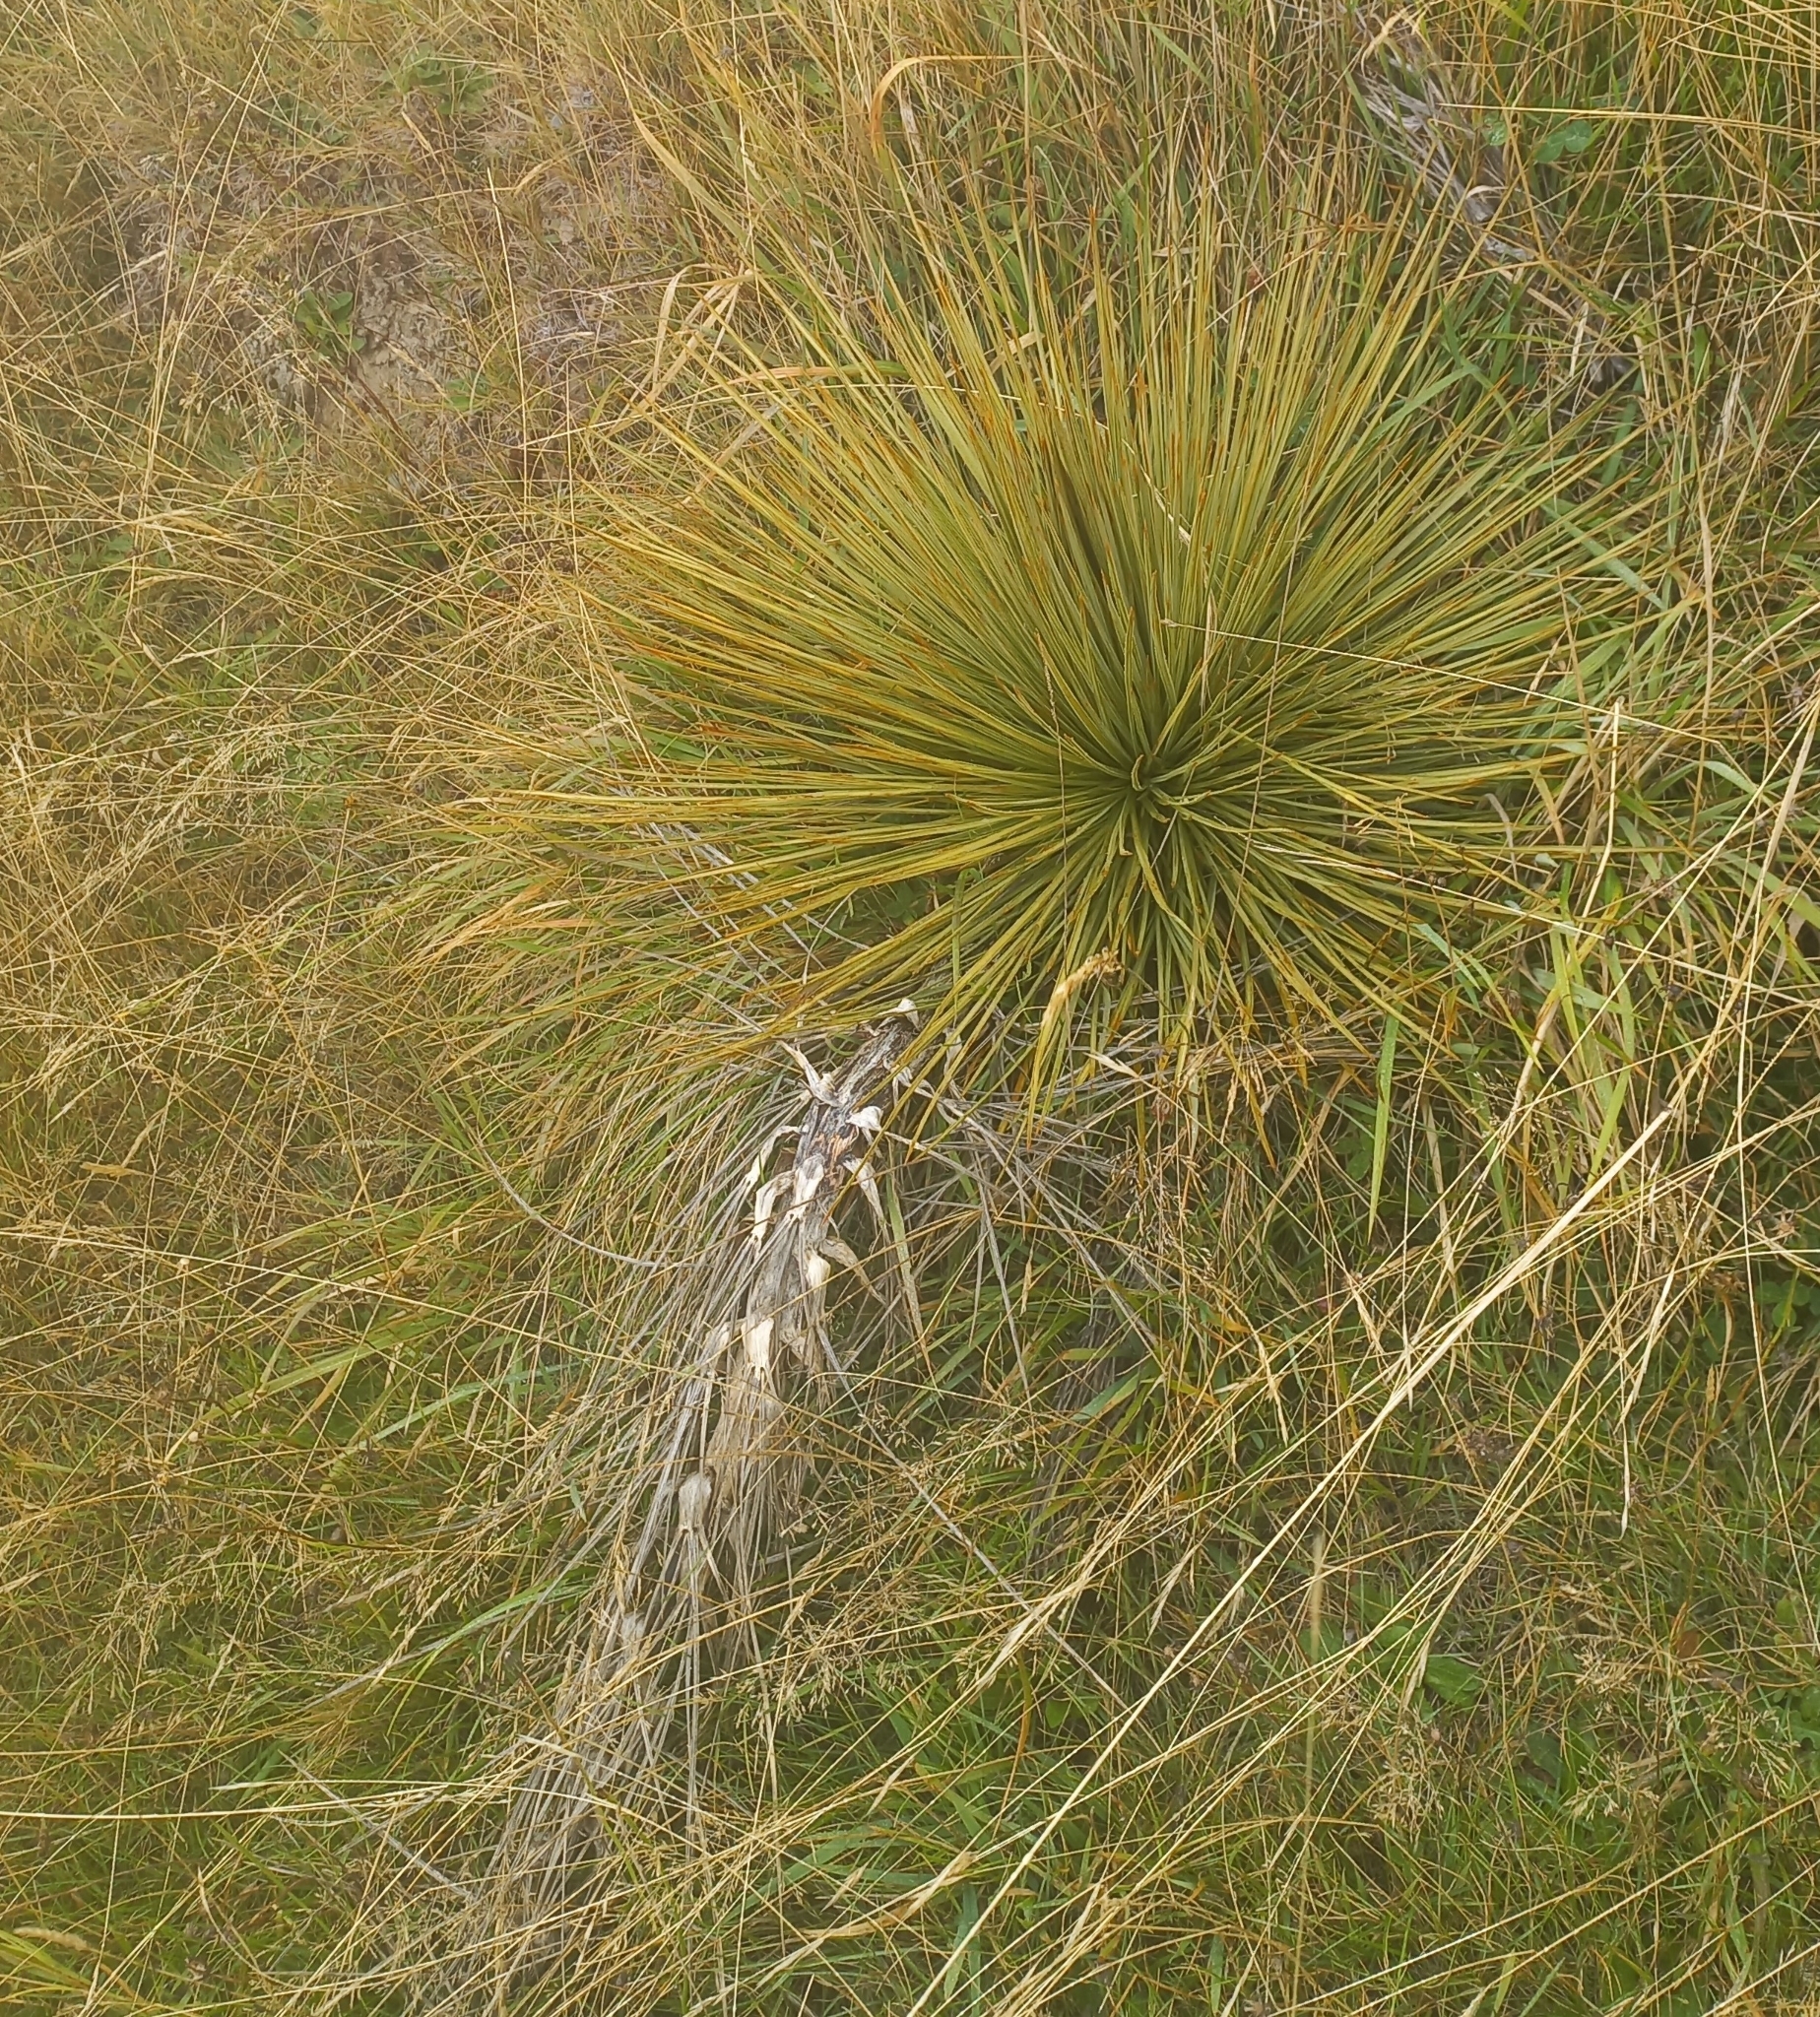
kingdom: Plantae
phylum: Tracheophyta
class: Magnoliopsida
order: Apiales
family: Apiaceae
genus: Aciphylla
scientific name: Aciphylla subflabellata
